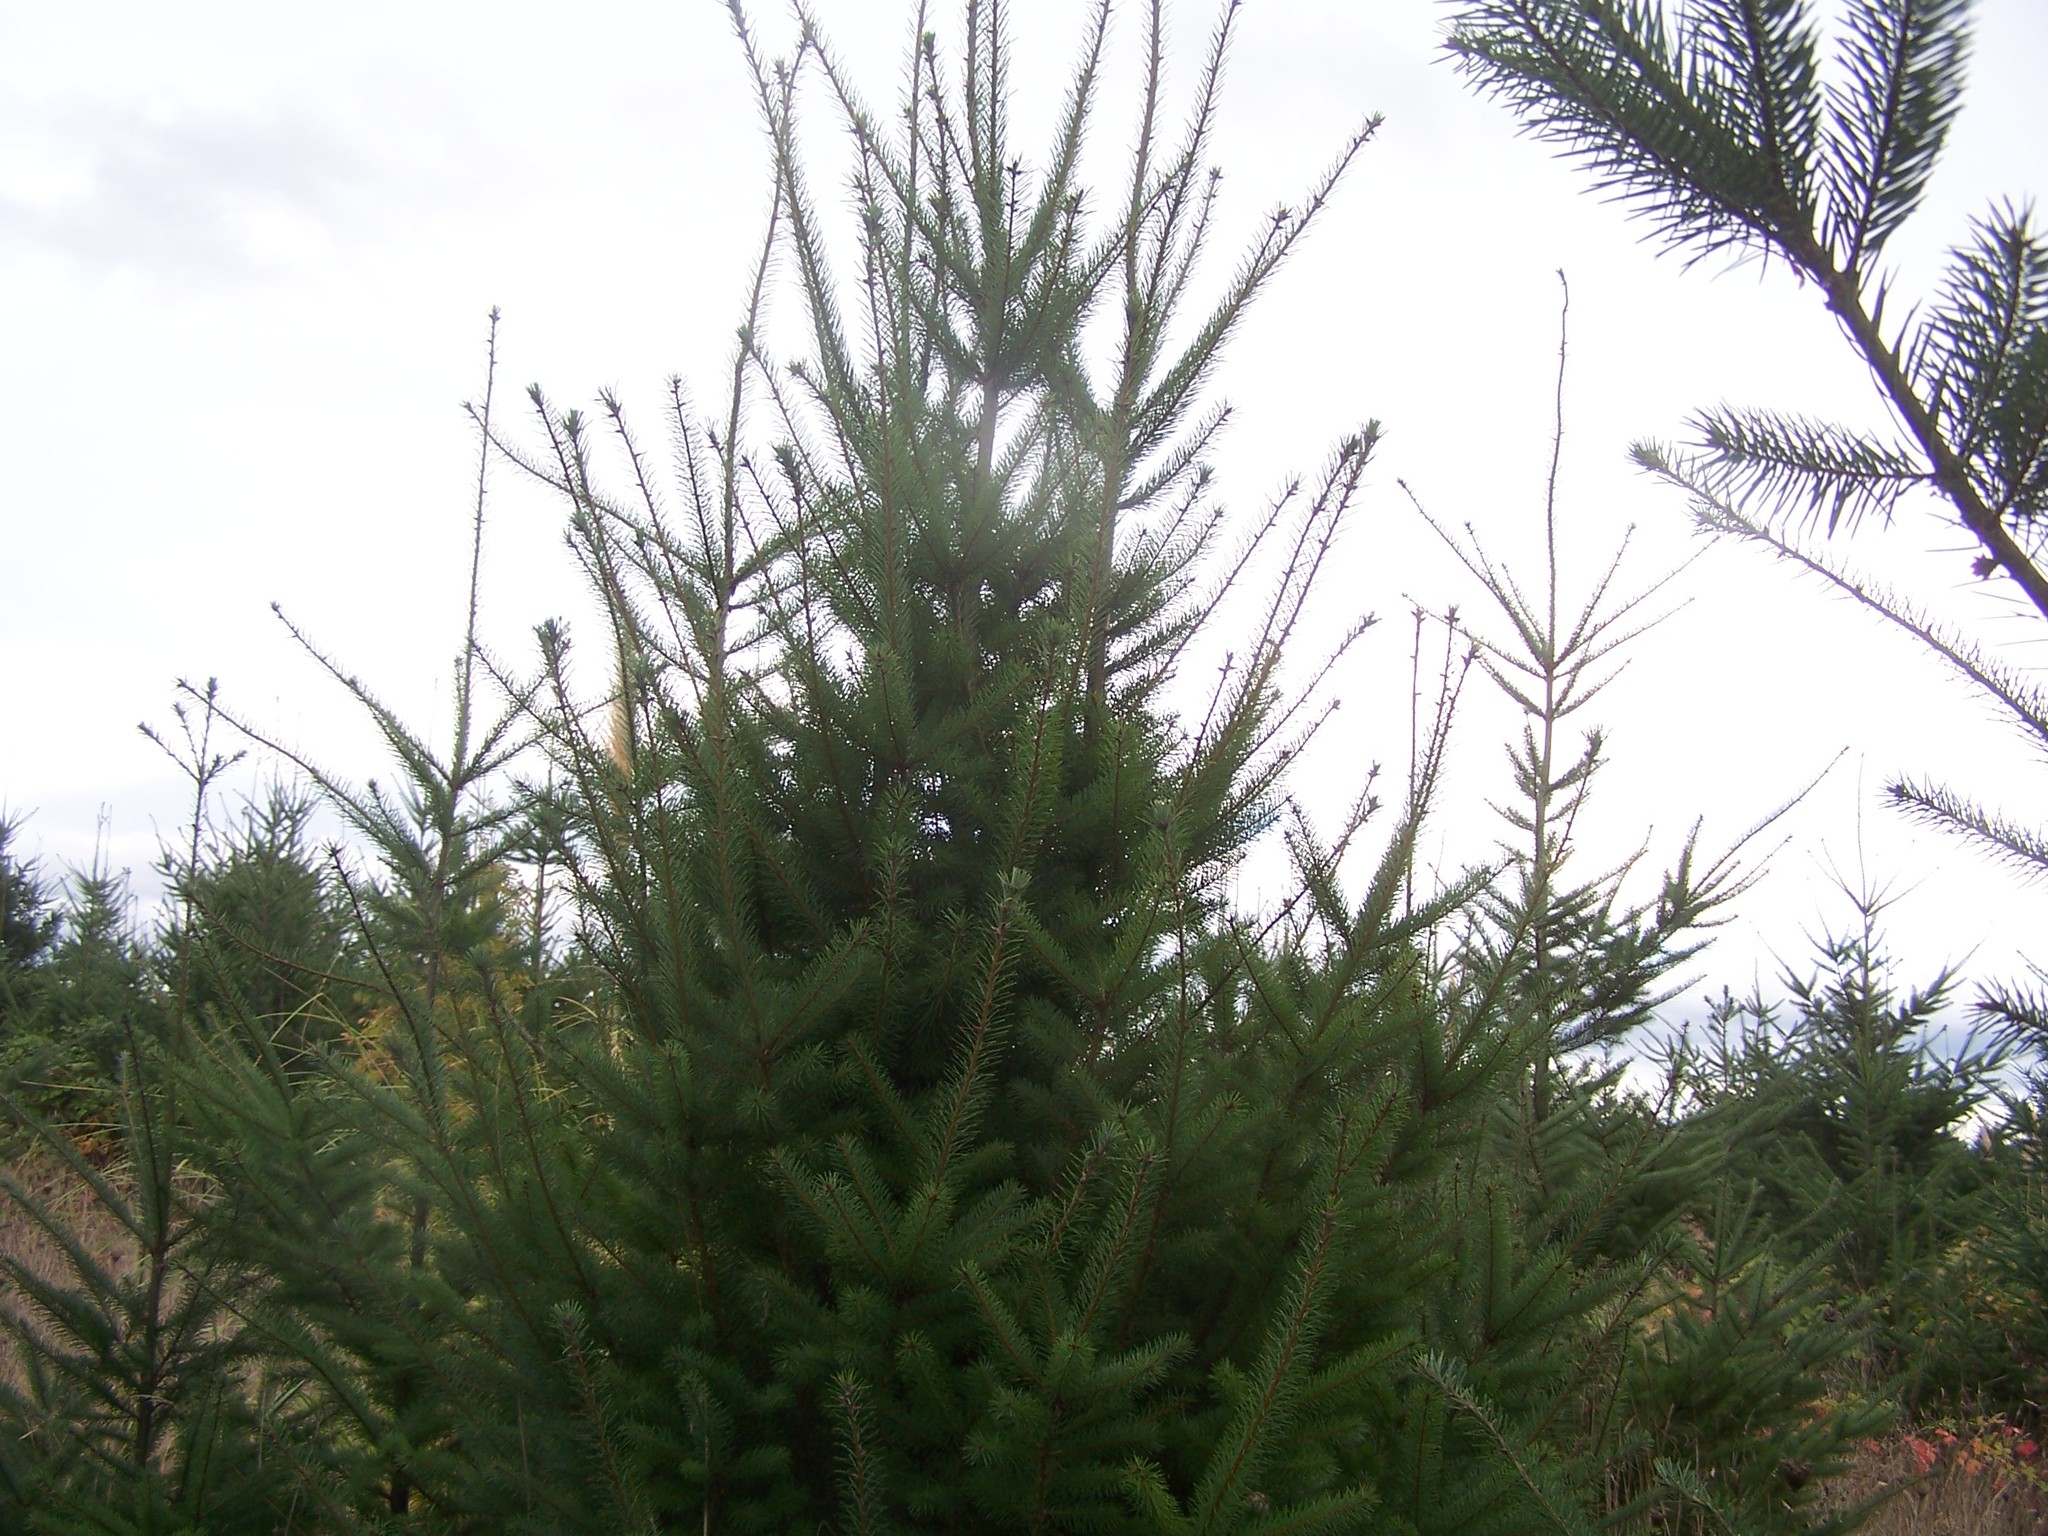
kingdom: Plantae
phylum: Tracheophyta
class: Pinopsida
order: Pinales
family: Pinaceae
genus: Pseudotsuga
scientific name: Pseudotsuga menziesii
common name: Douglas fir
